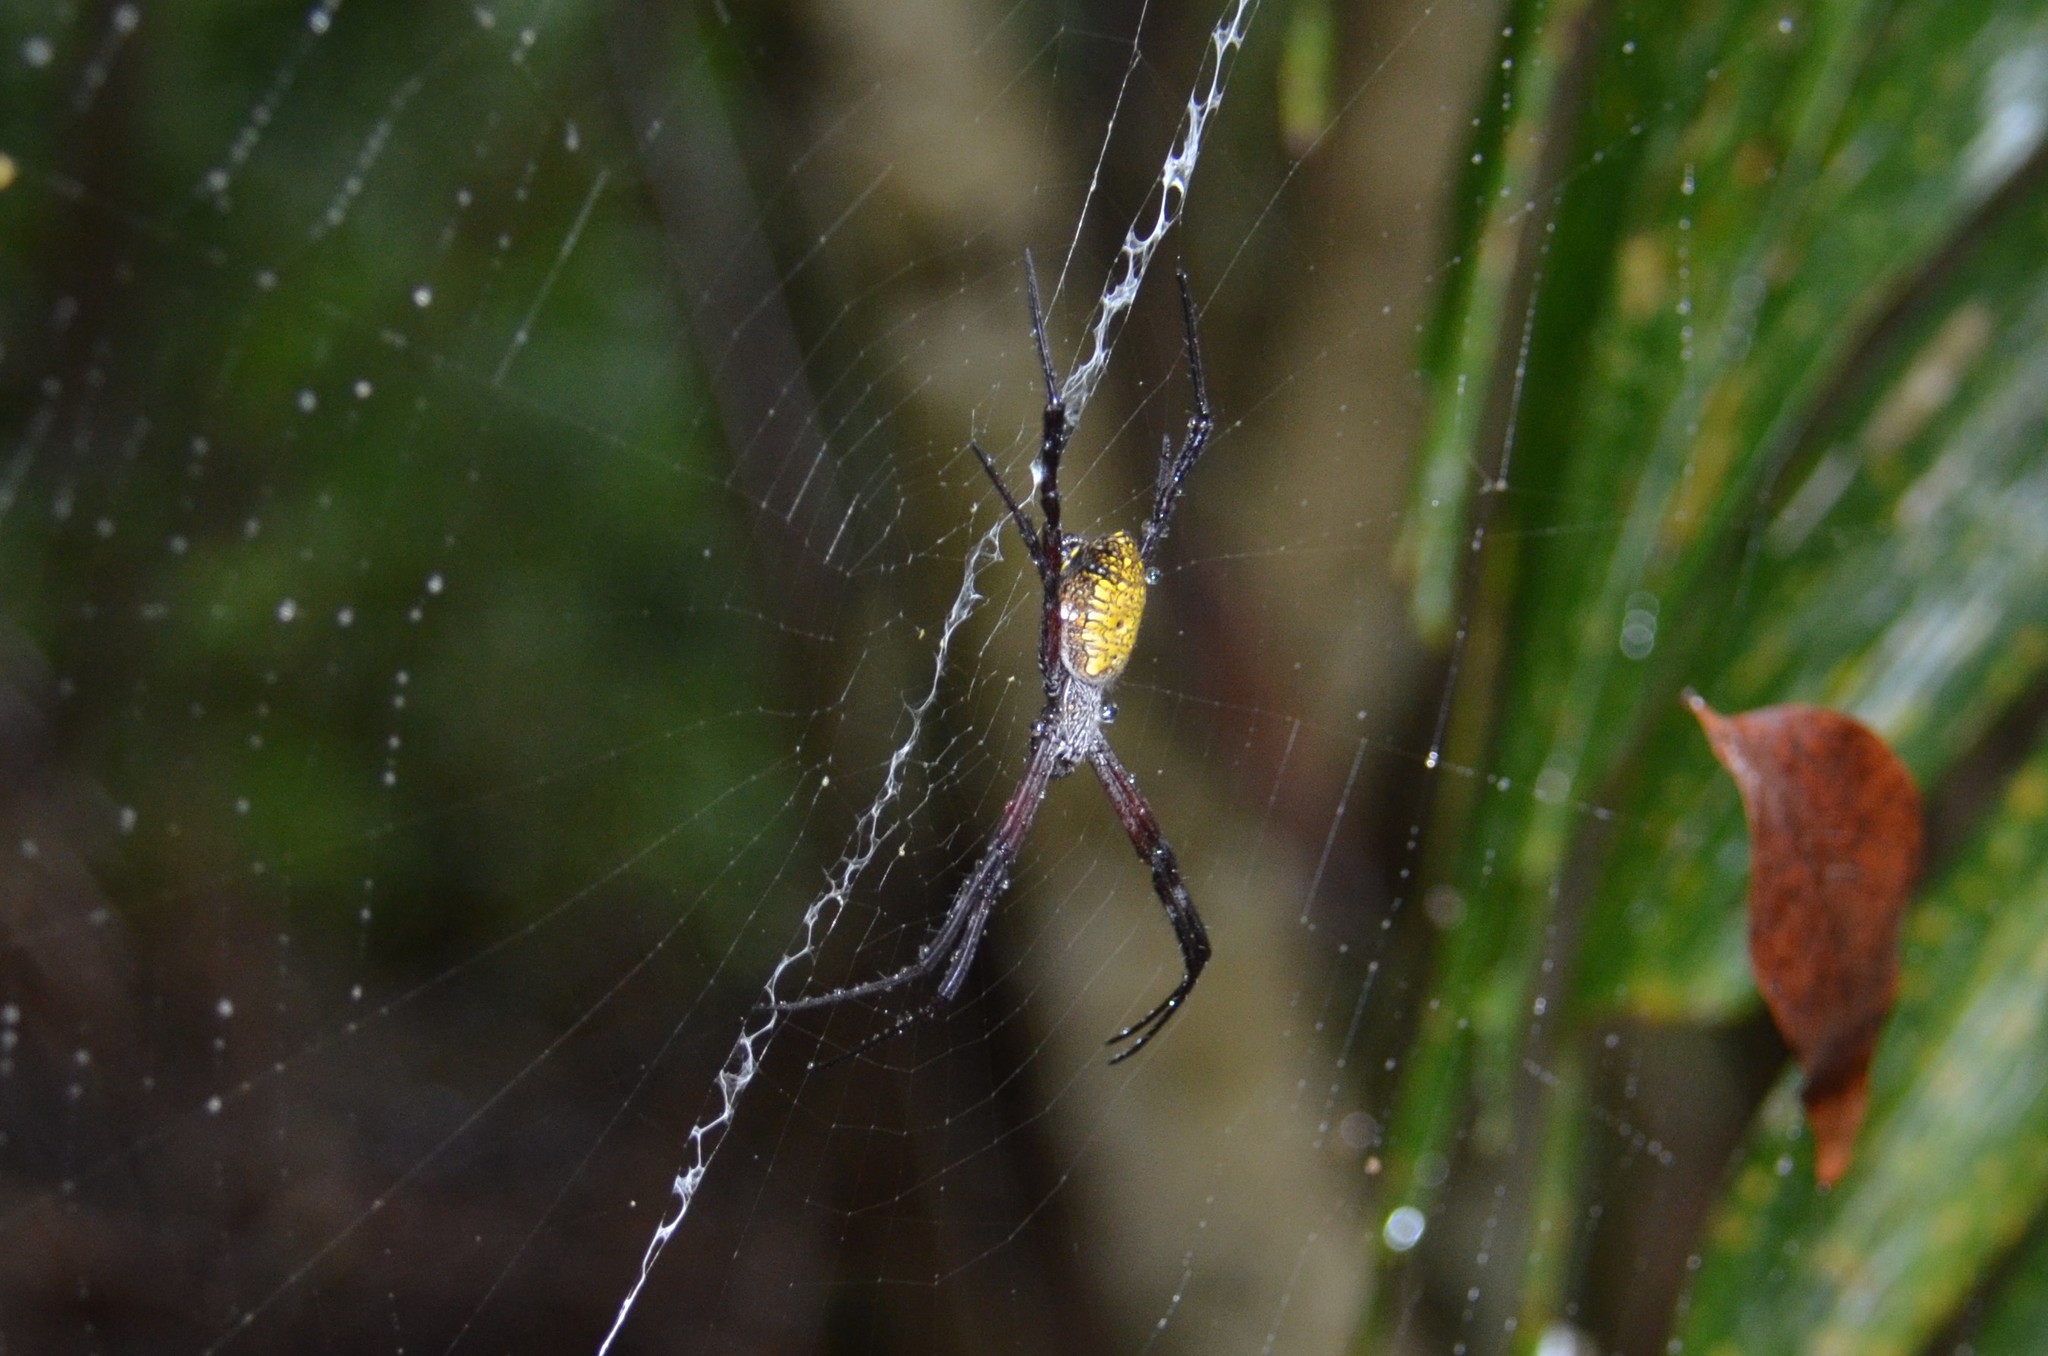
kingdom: Animalia
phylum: Arthropoda
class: Arachnida
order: Araneae
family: Araneidae
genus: Argiope
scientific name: Argiope appensa
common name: Garden spider
